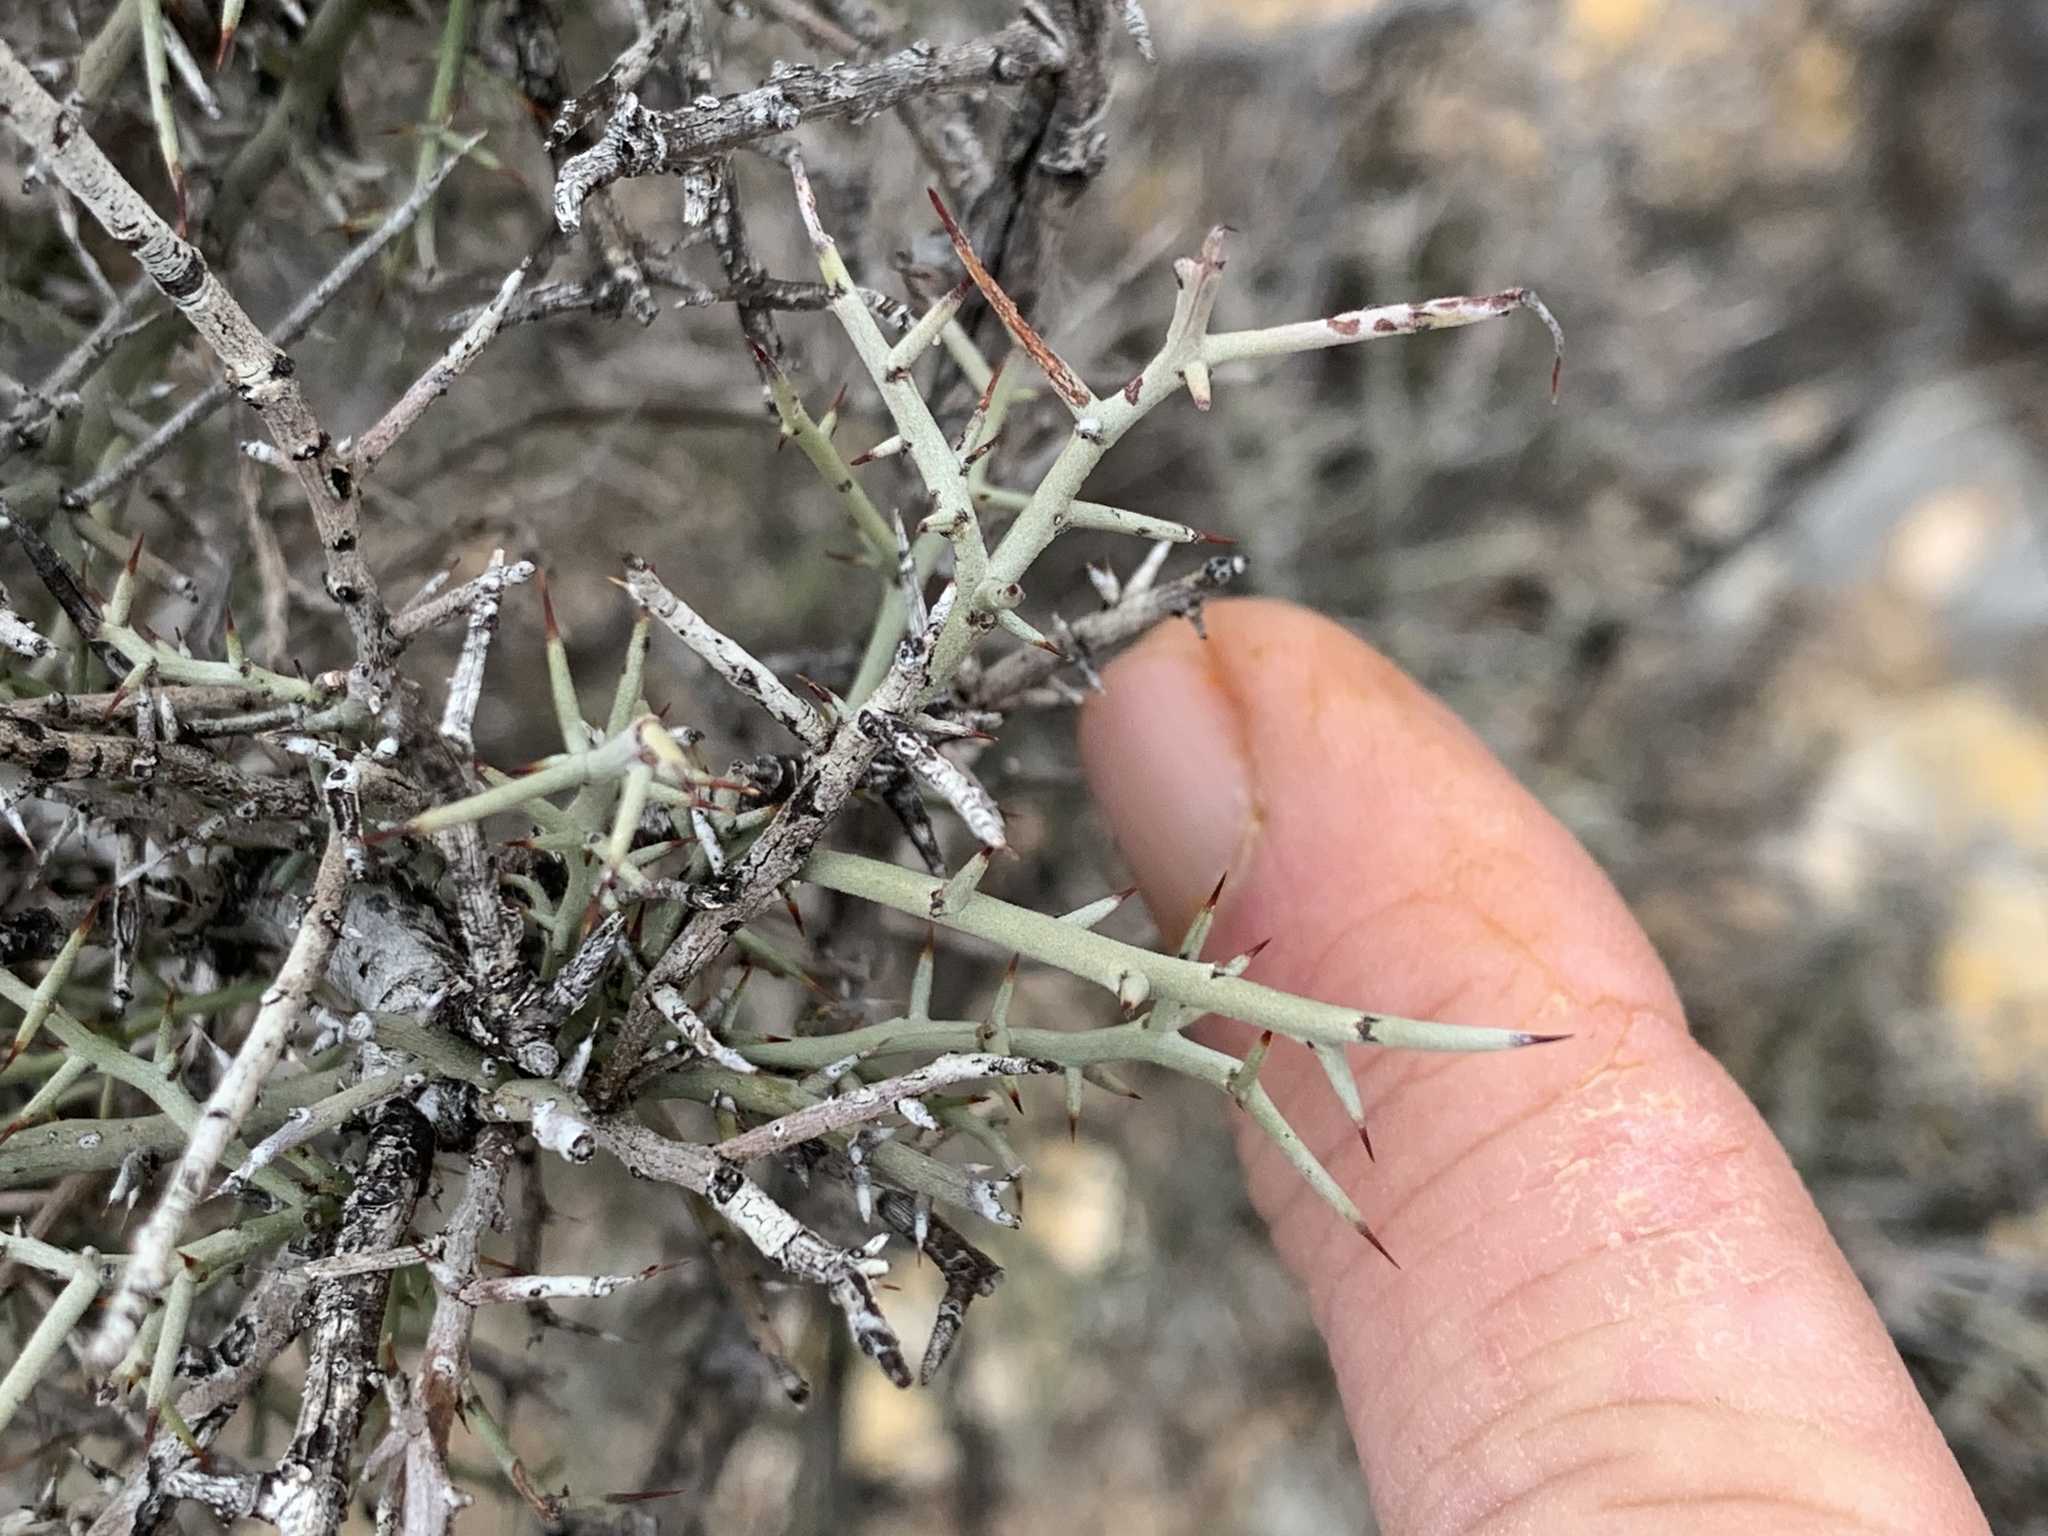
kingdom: Plantae
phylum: Tracheophyta
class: Magnoliopsida
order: Rosales
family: Rhamnaceae
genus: Sarcomphalus
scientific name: Sarcomphalus obtusifolius
